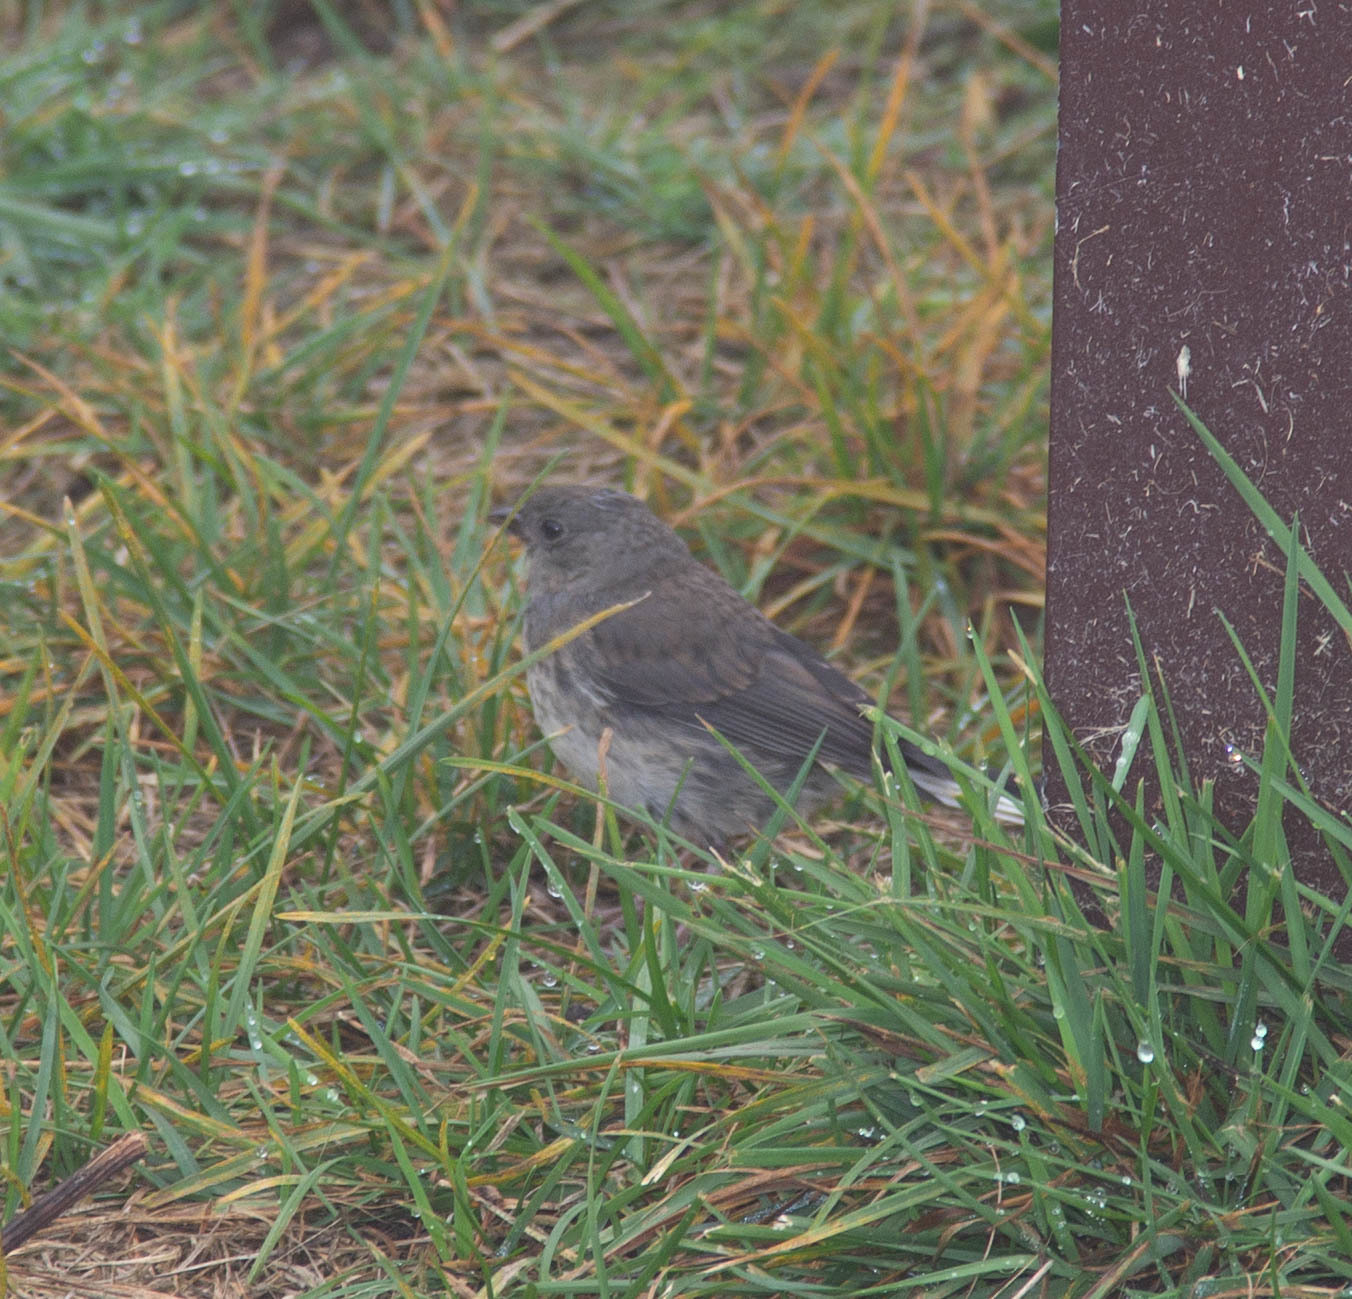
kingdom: Animalia
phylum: Chordata
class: Aves
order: Passeriformes
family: Passerellidae
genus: Junco
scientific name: Junco hyemalis
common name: Dark-eyed junco
